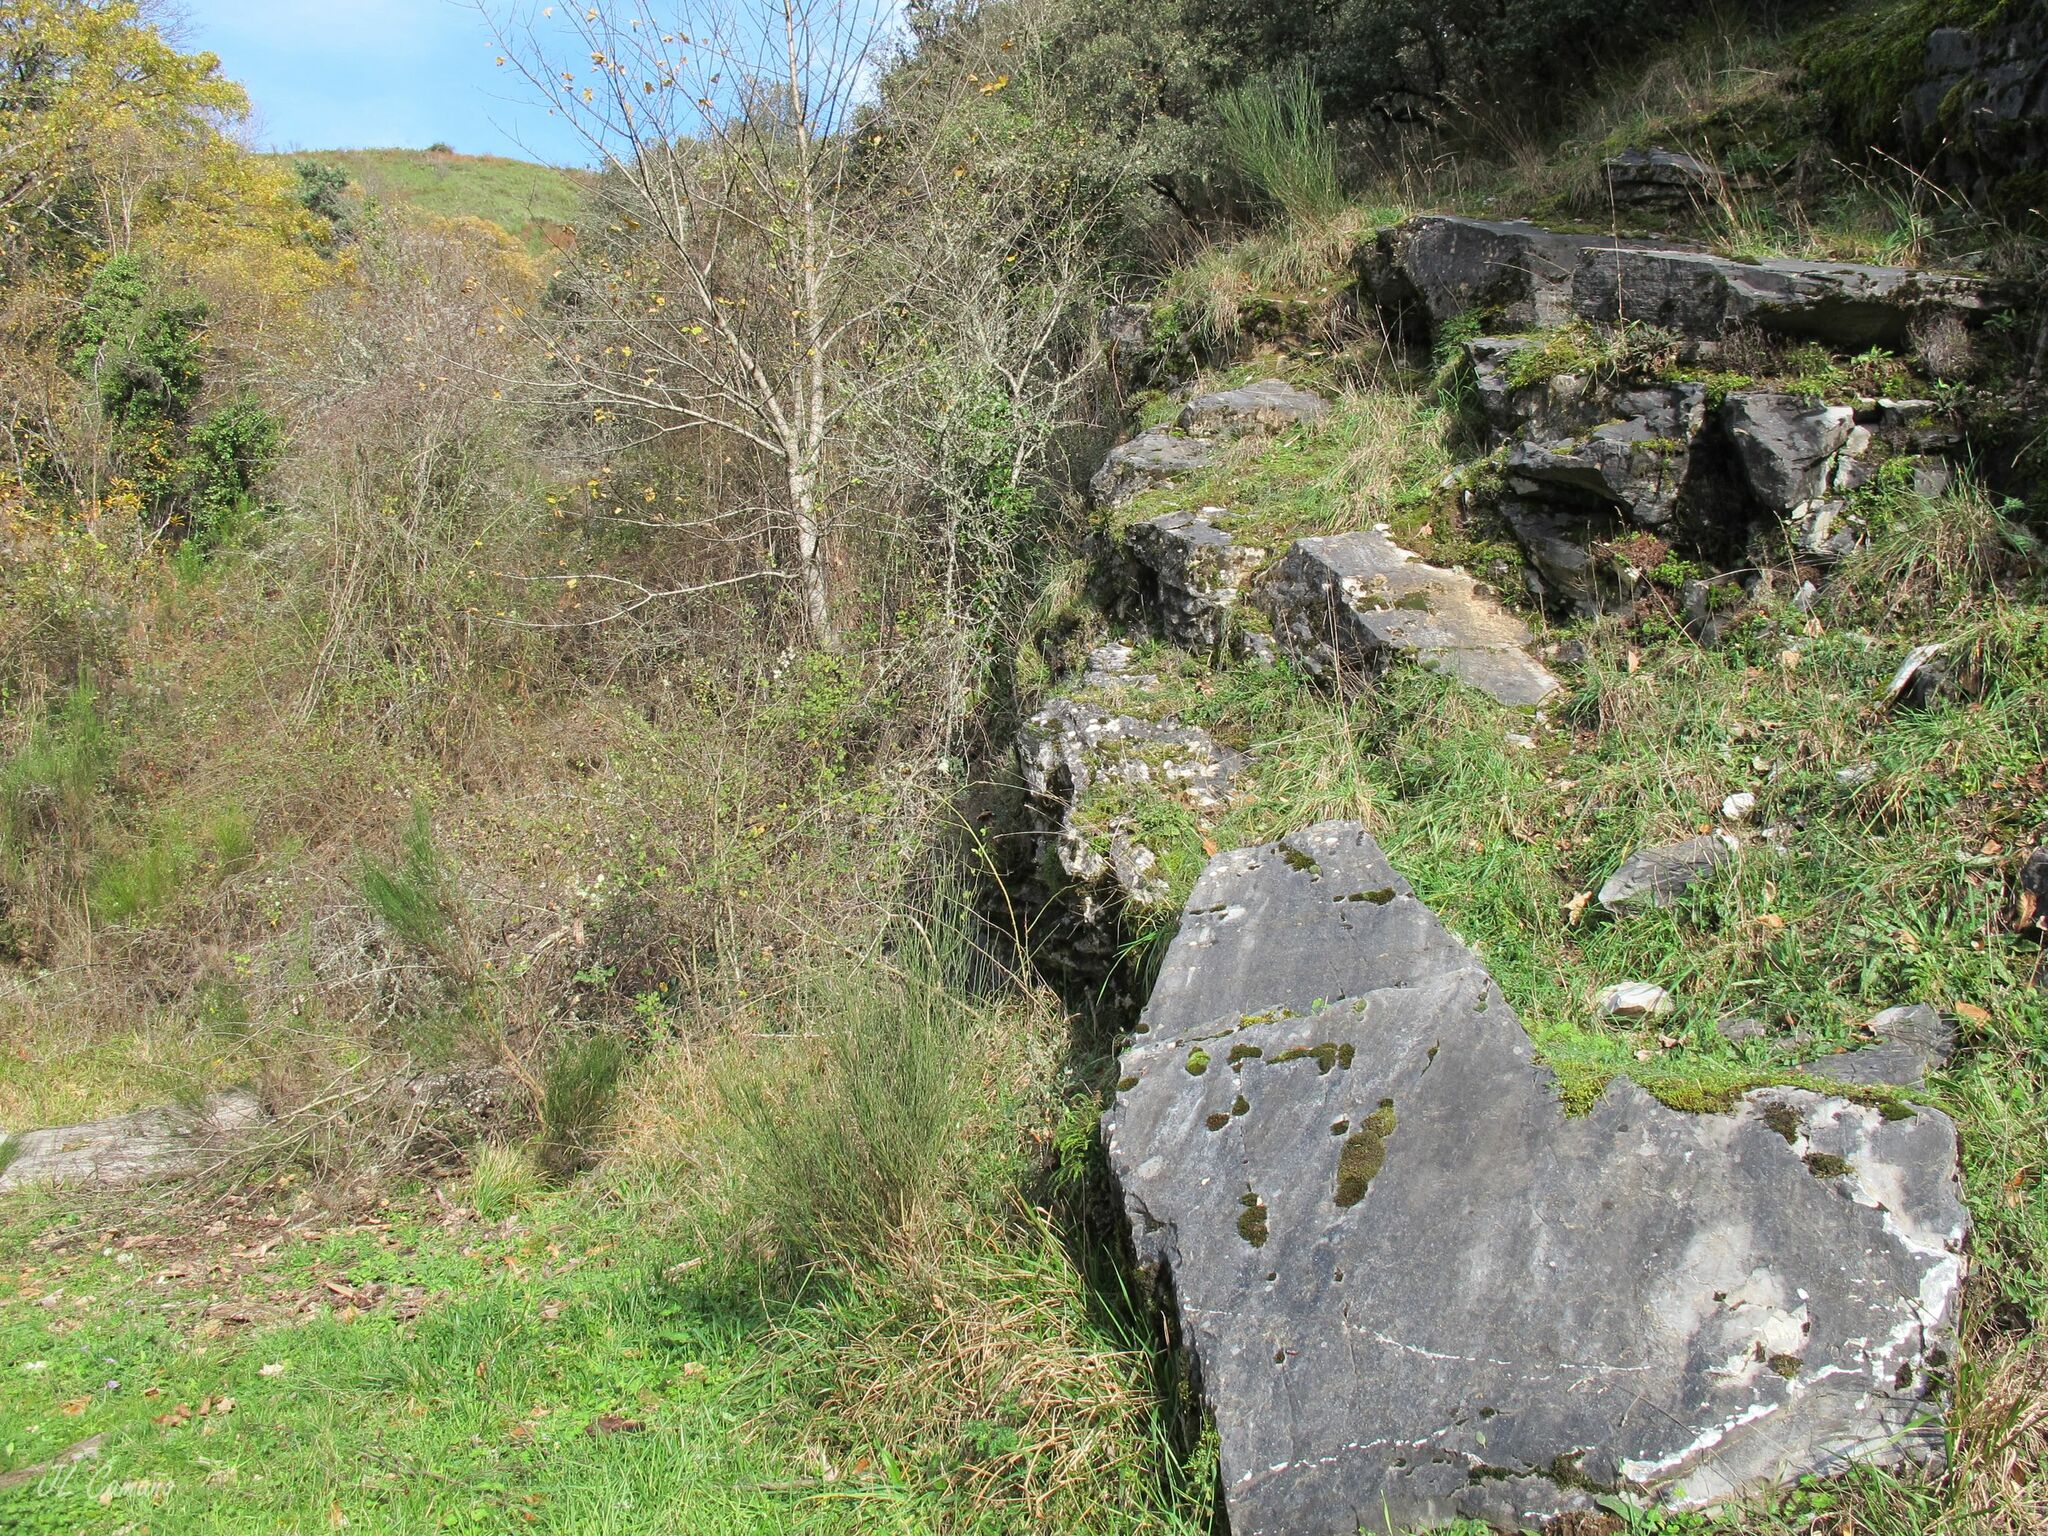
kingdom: Plantae
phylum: Bryophyta
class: Bryopsida
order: Pottiales
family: Pottiaceae
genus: Syntrichia
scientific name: Syntrichia montana
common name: Intermediate screw-moss
